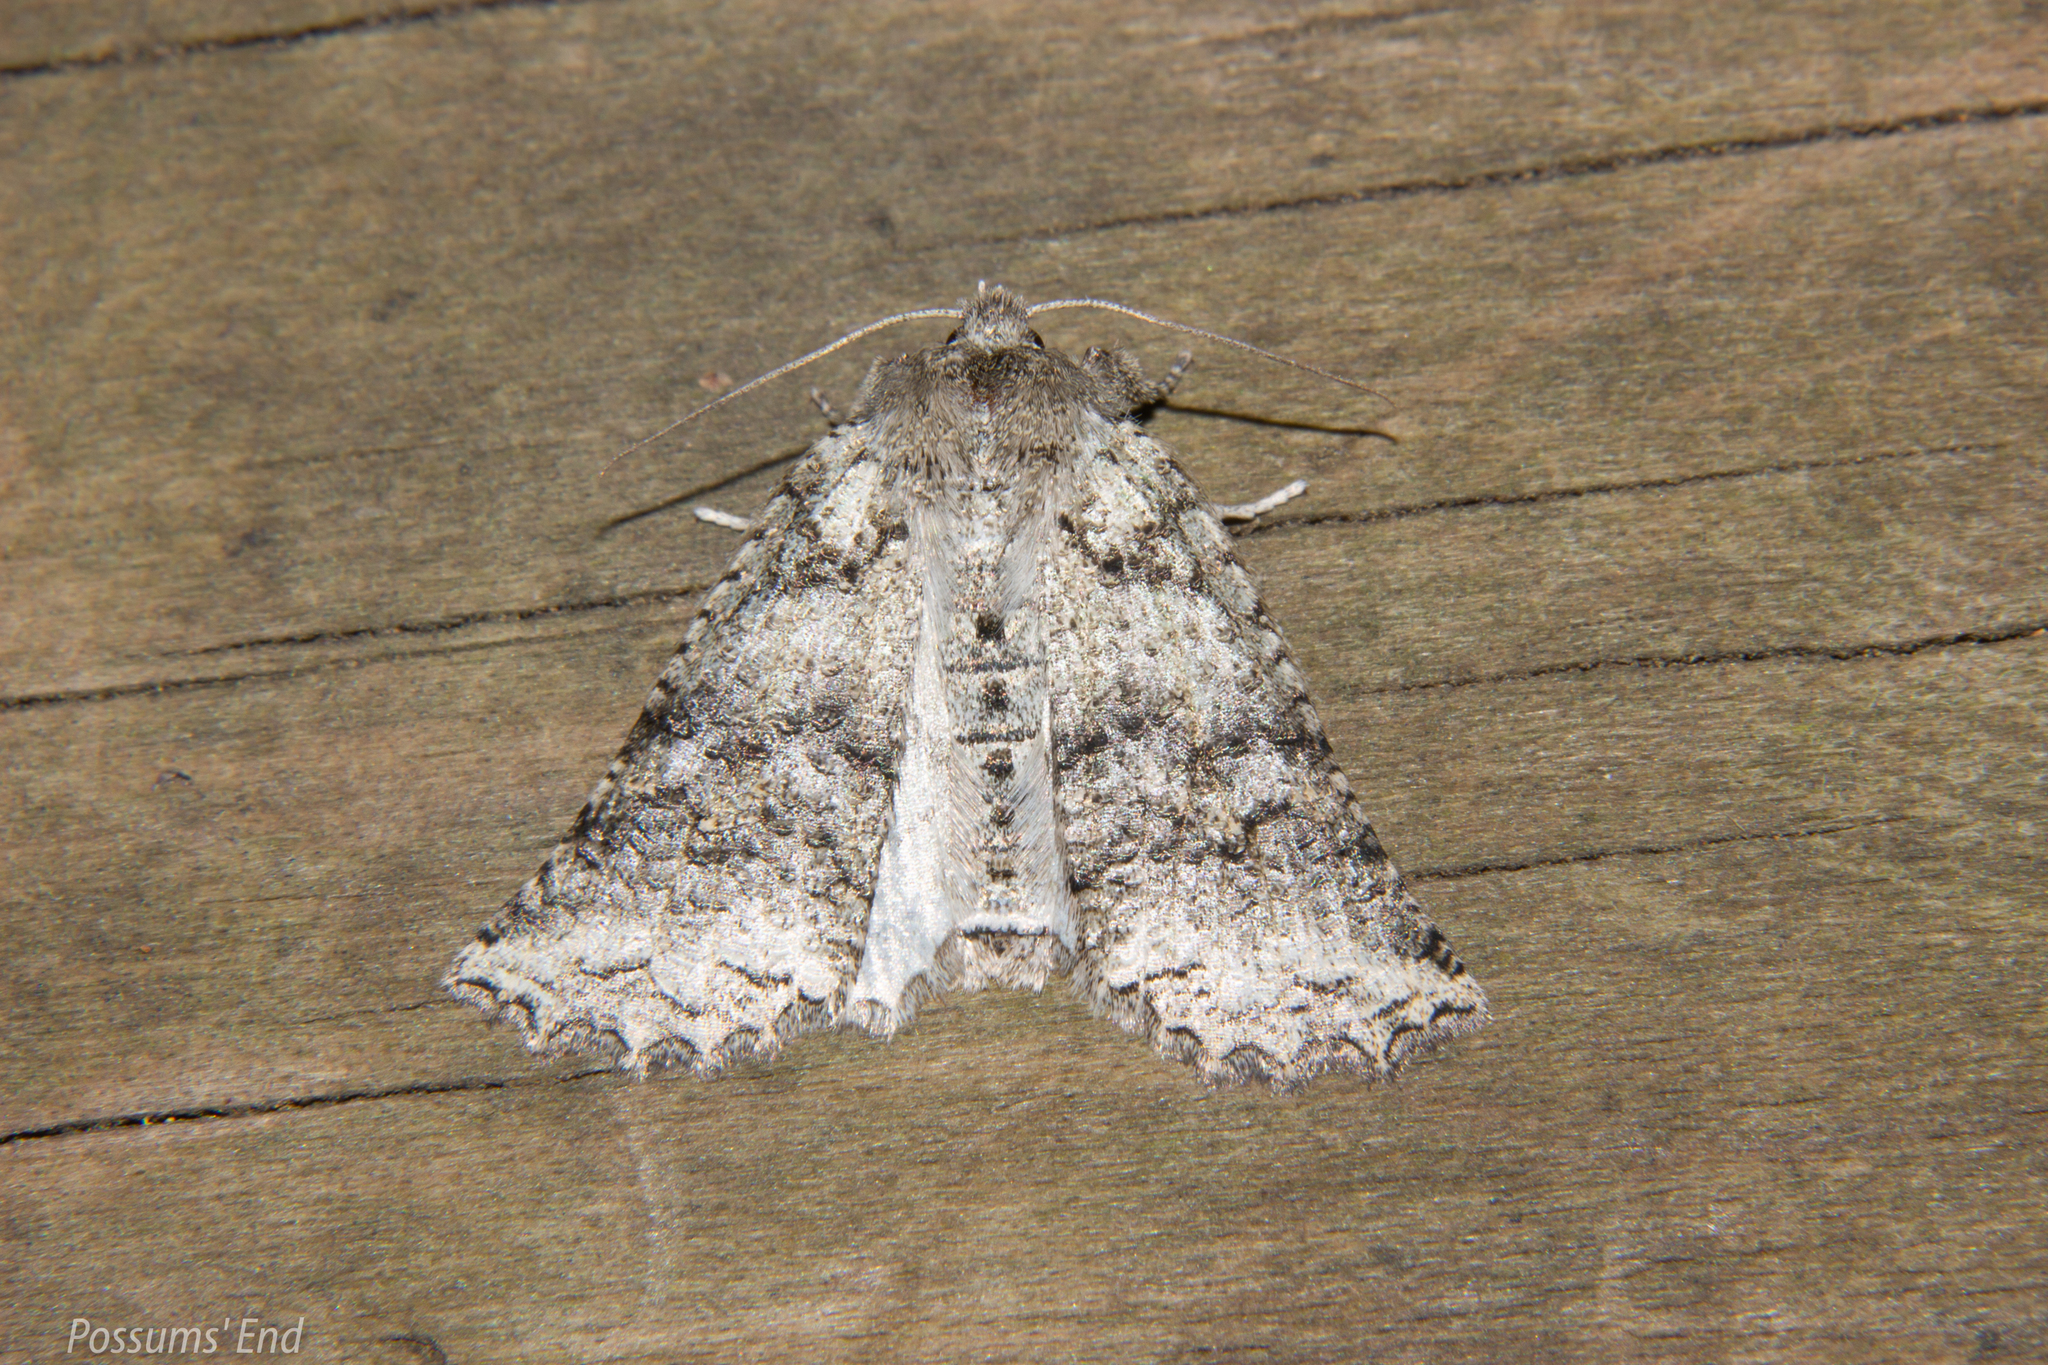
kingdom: Animalia
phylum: Arthropoda
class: Insecta
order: Lepidoptera
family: Geometridae
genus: Declana
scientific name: Declana floccosa
